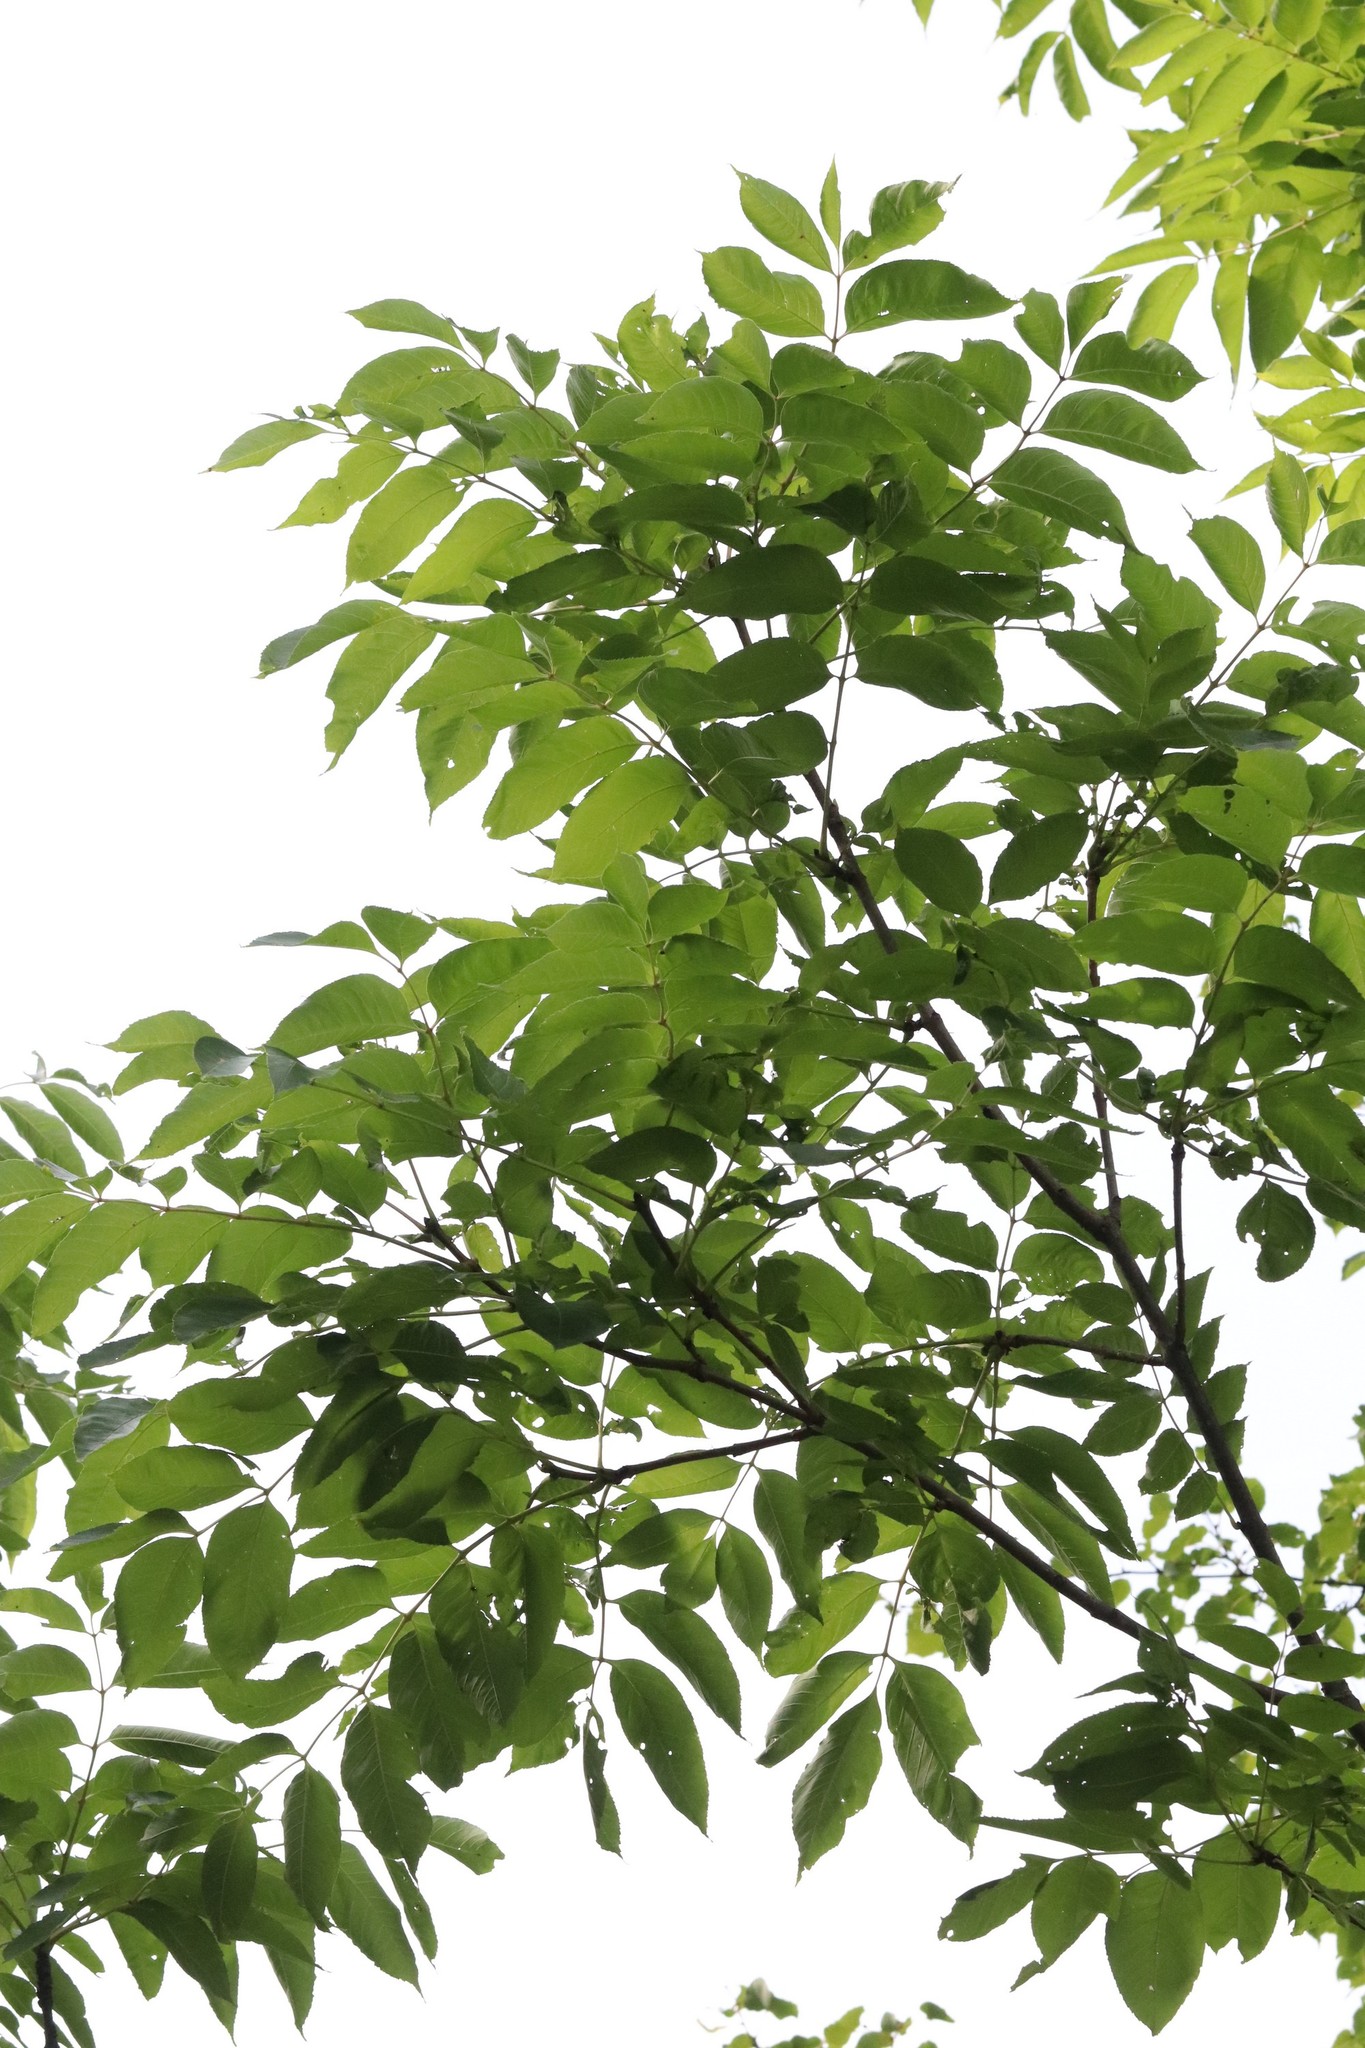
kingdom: Plantae
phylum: Tracheophyta
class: Magnoliopsida
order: Lamiales
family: Oleaceae
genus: Fraxinus
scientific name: Fraxinus mandshurica
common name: Manchurian ash
